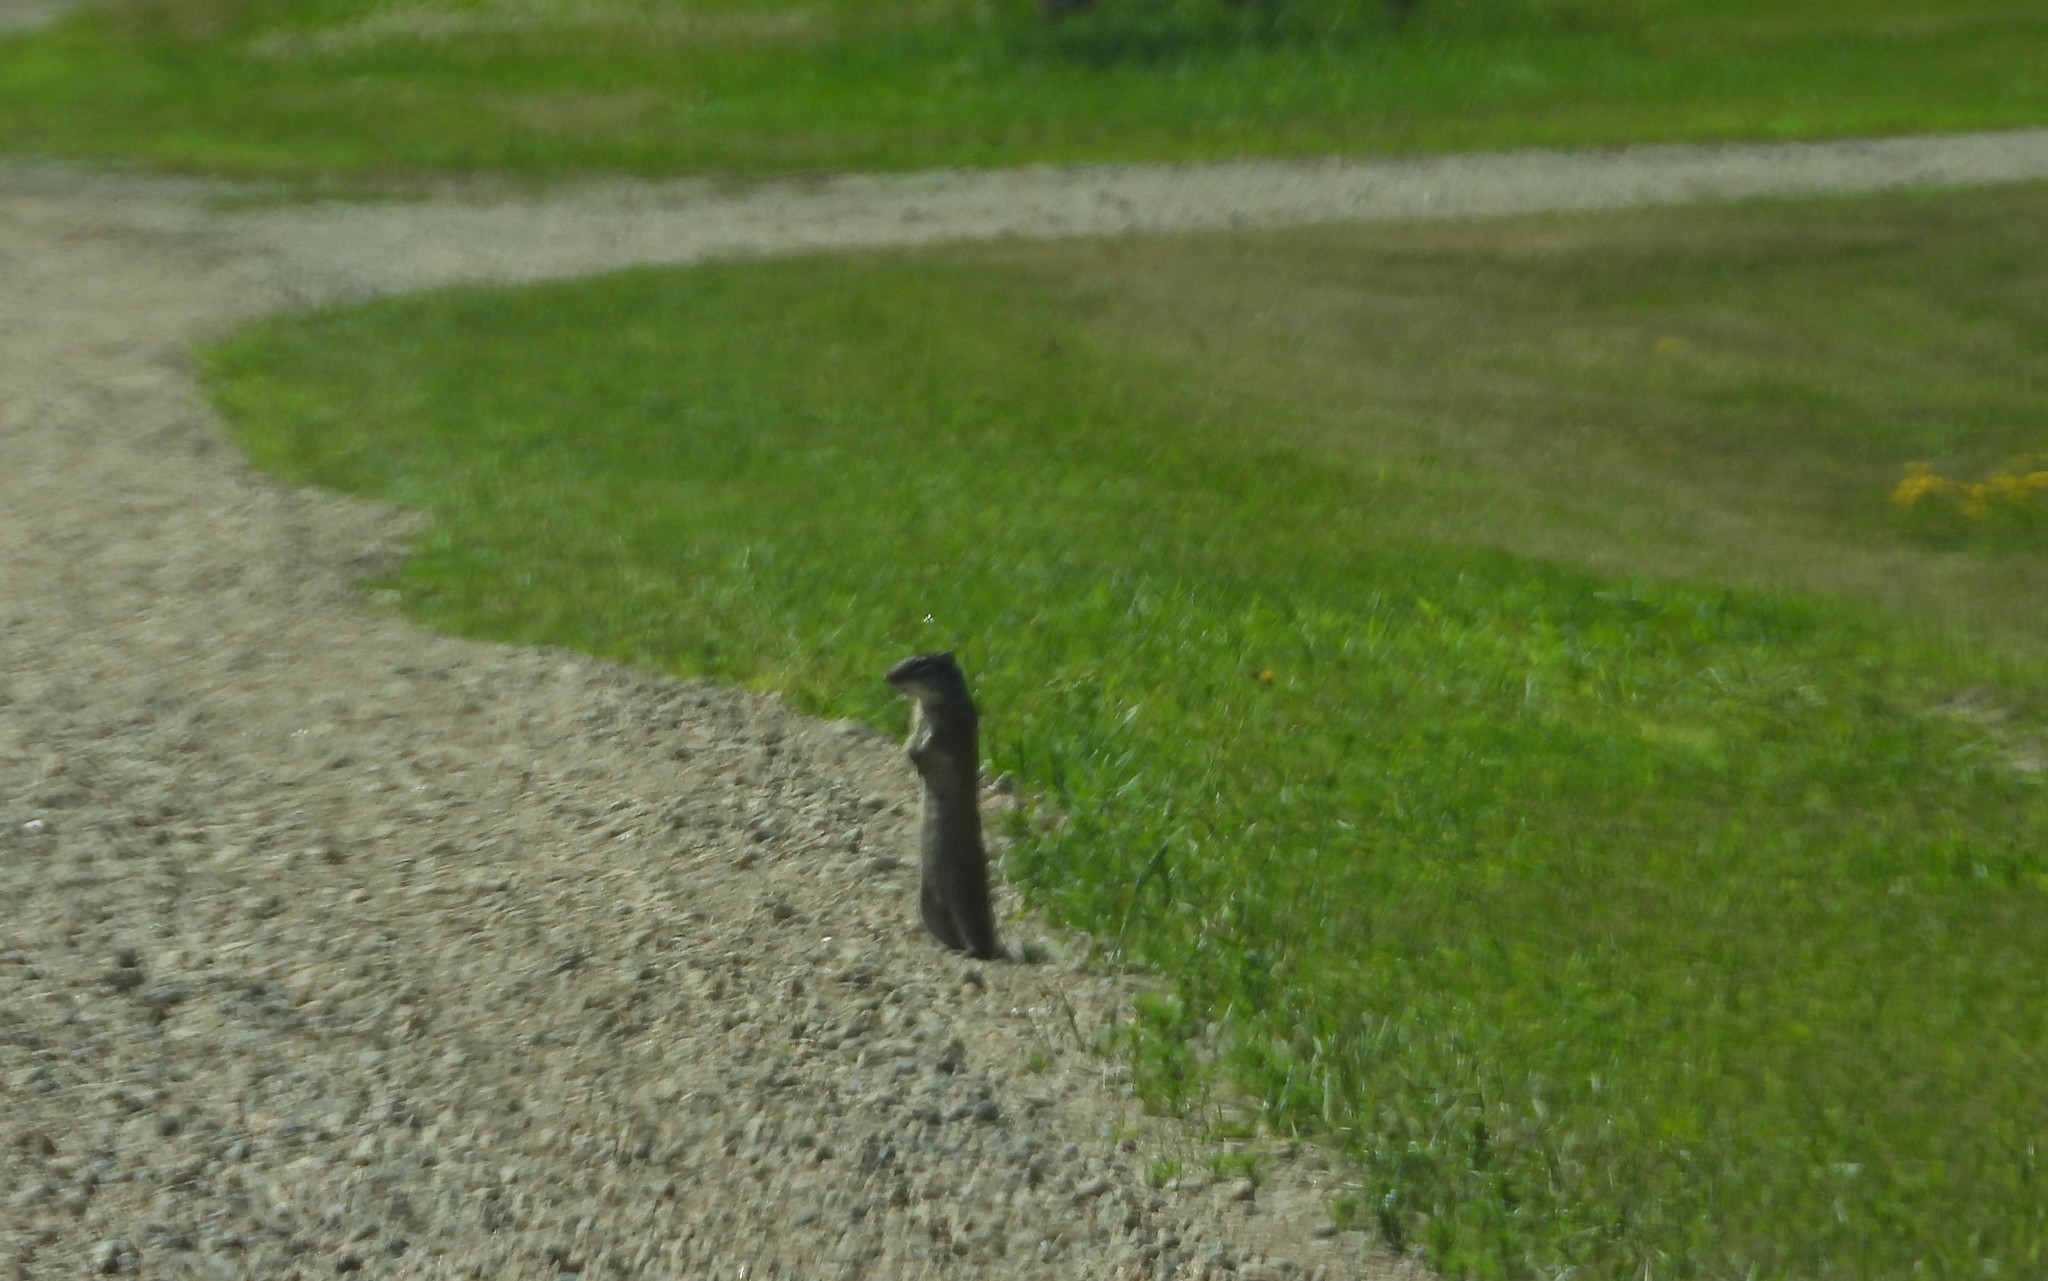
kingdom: Animalia
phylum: Chordata
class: Mammalia
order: Rodentia
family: Sciuridae
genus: Poliocitellus
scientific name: Poliocitellus franklinii
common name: Franklin's ground squirrel
